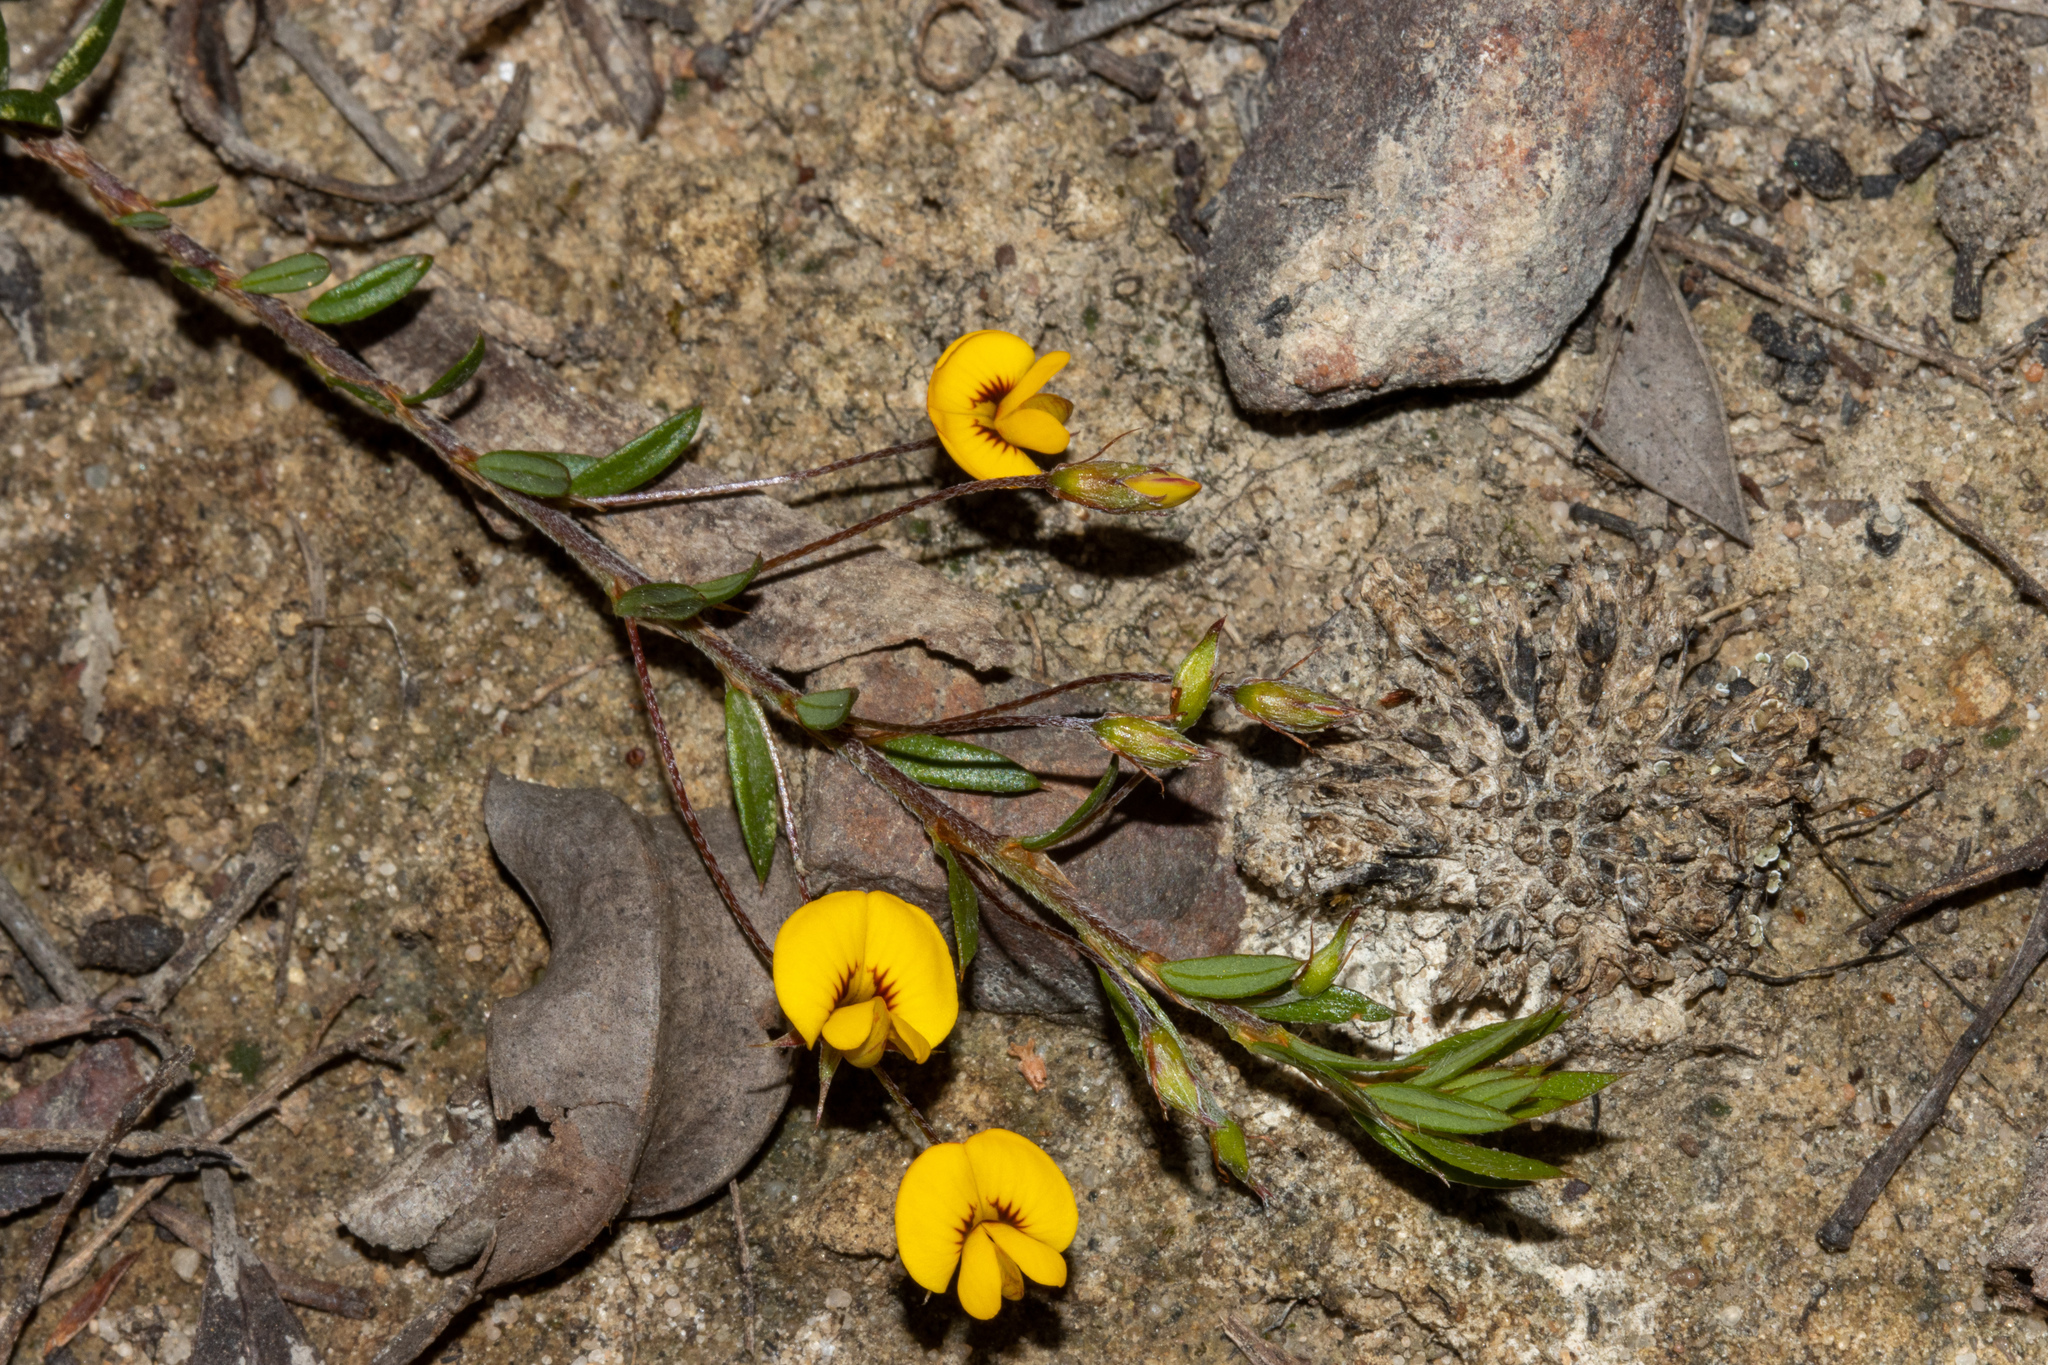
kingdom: Plantae
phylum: Tracheophyta
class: Magnoliopsida
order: Fabales
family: Fabaceae
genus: Pultenaea
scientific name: Pultenaea pedunculata
